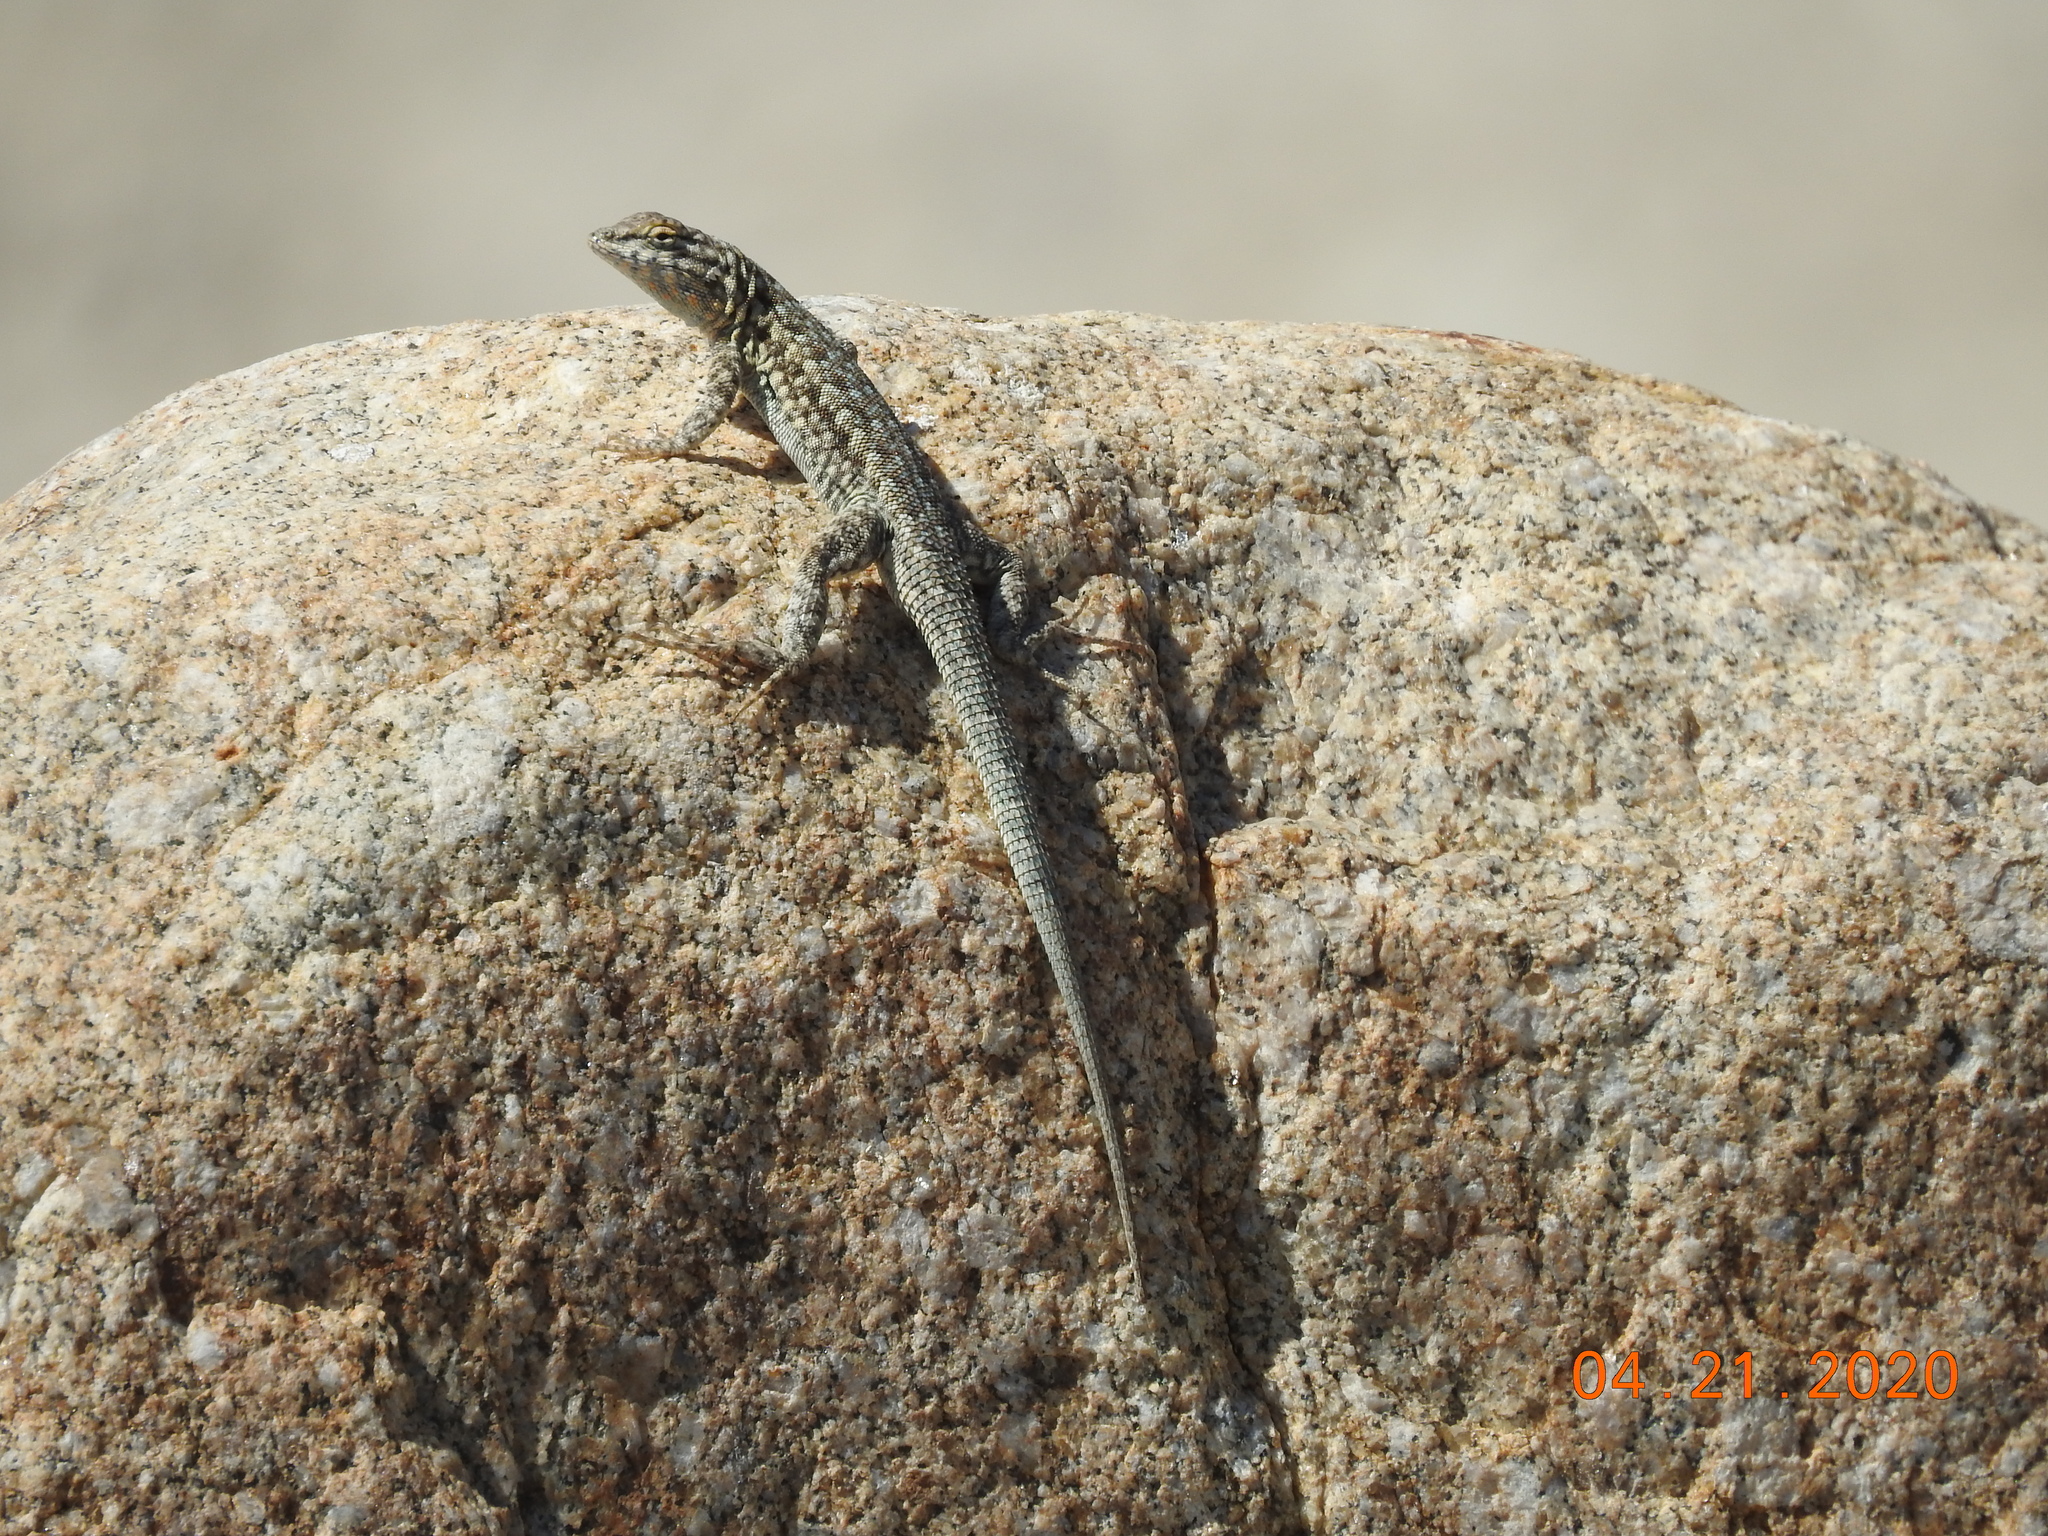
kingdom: Animalia
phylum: Chordata
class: Squamata
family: Phrynosomatidae
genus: Uta
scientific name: Uta stansburiana
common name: Side-blotched lizard
